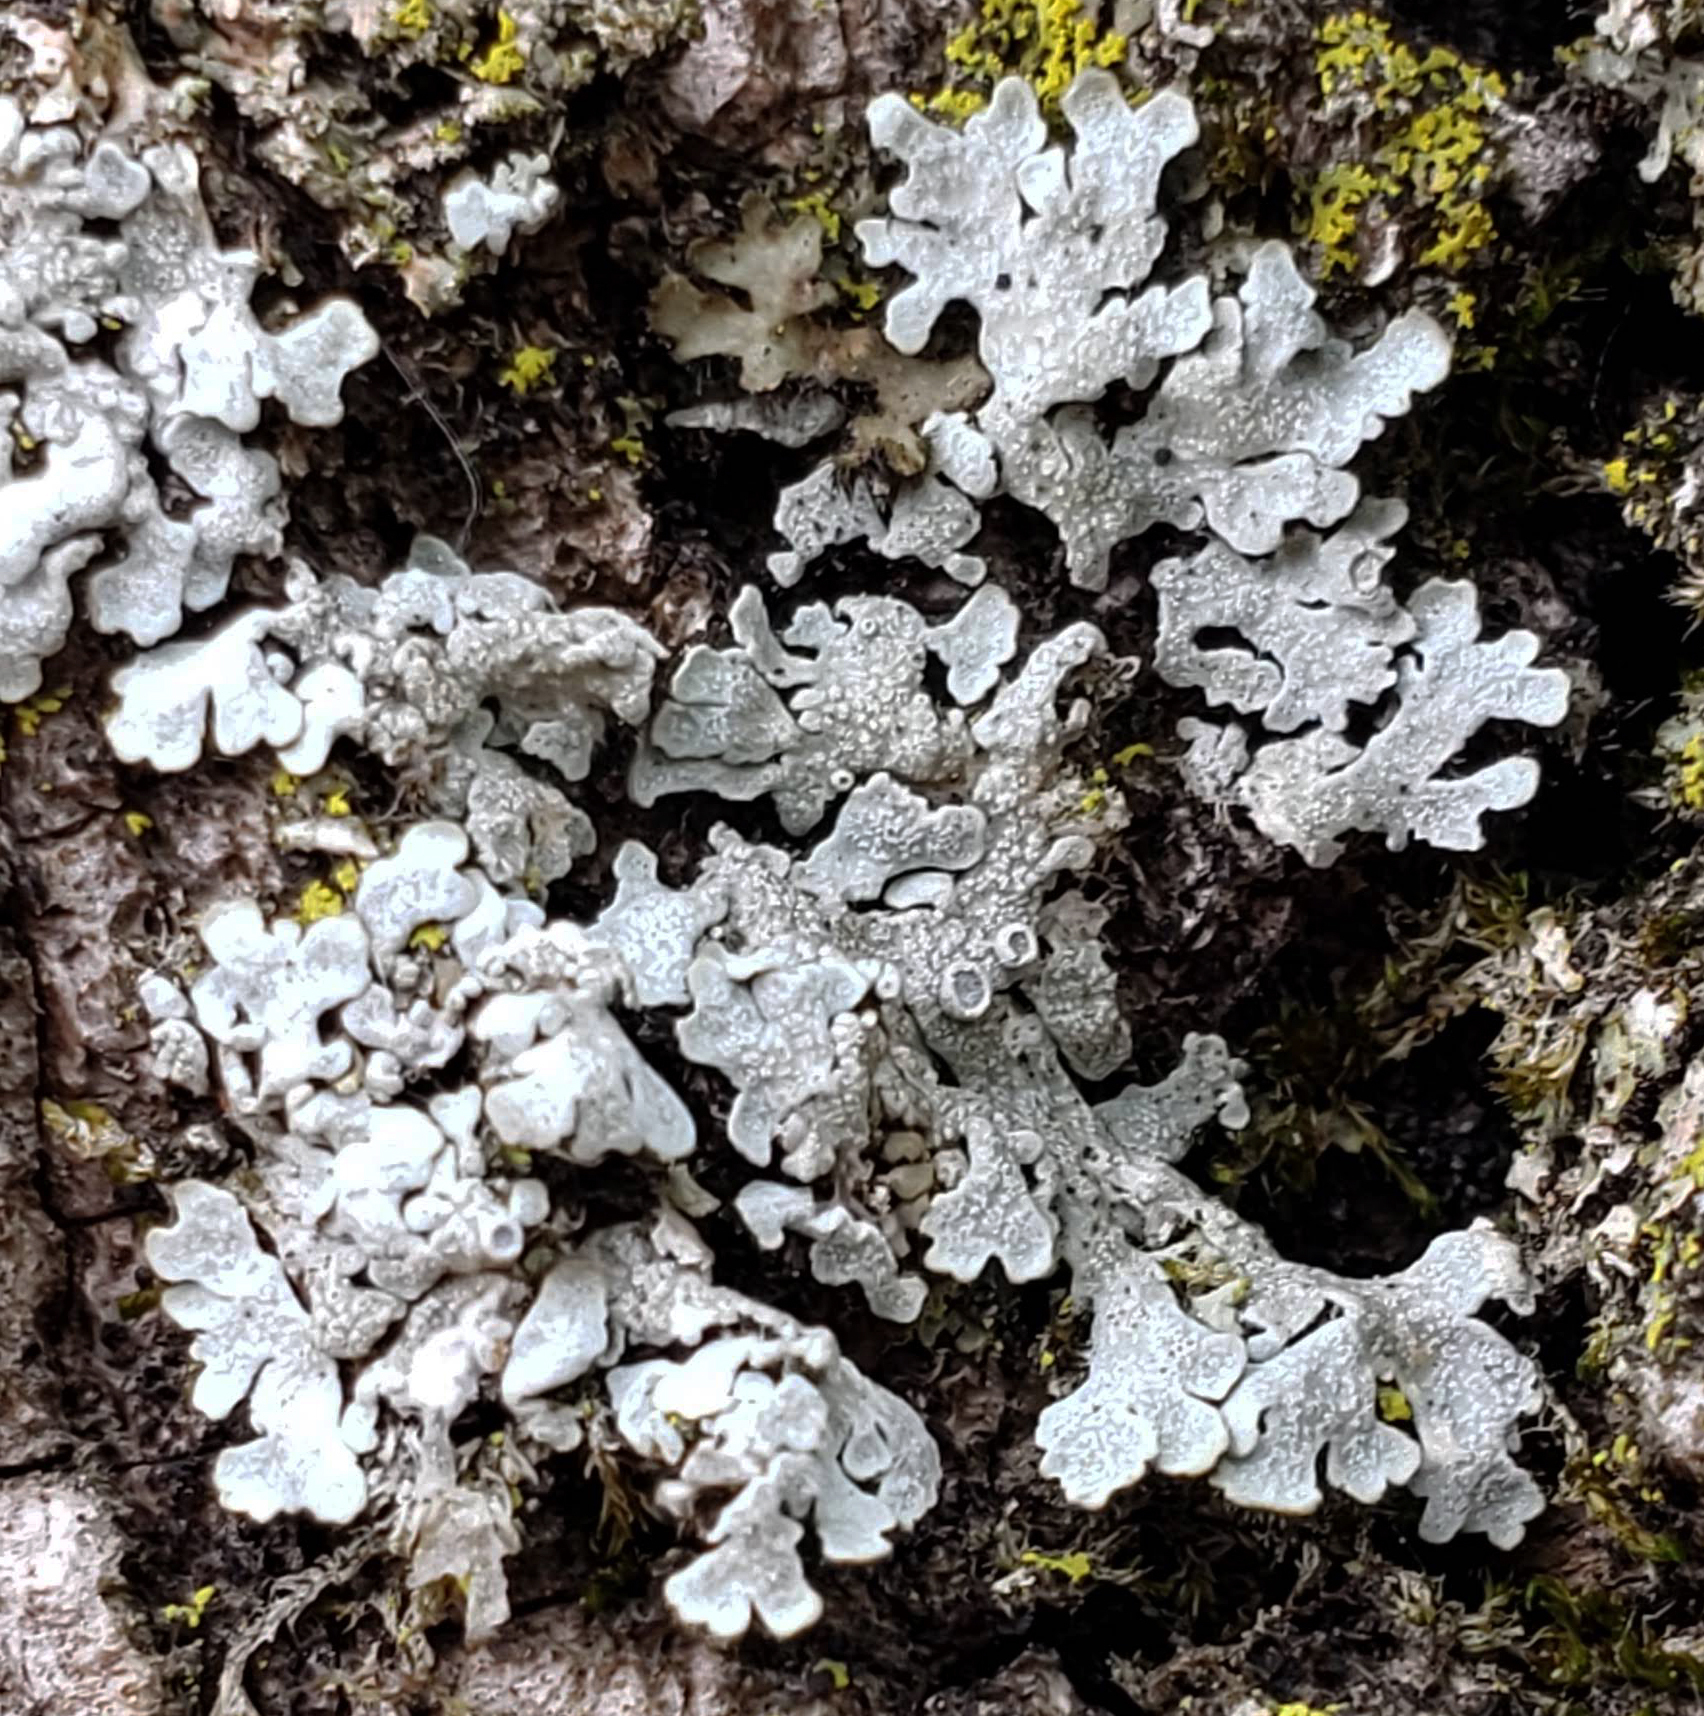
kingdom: Fungi
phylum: Ascomycota
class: Lecanoromycetes
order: Caliciales
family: Physciaceae
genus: Physcia
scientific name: Physcia aipolia
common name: Hoary rosette lichen
